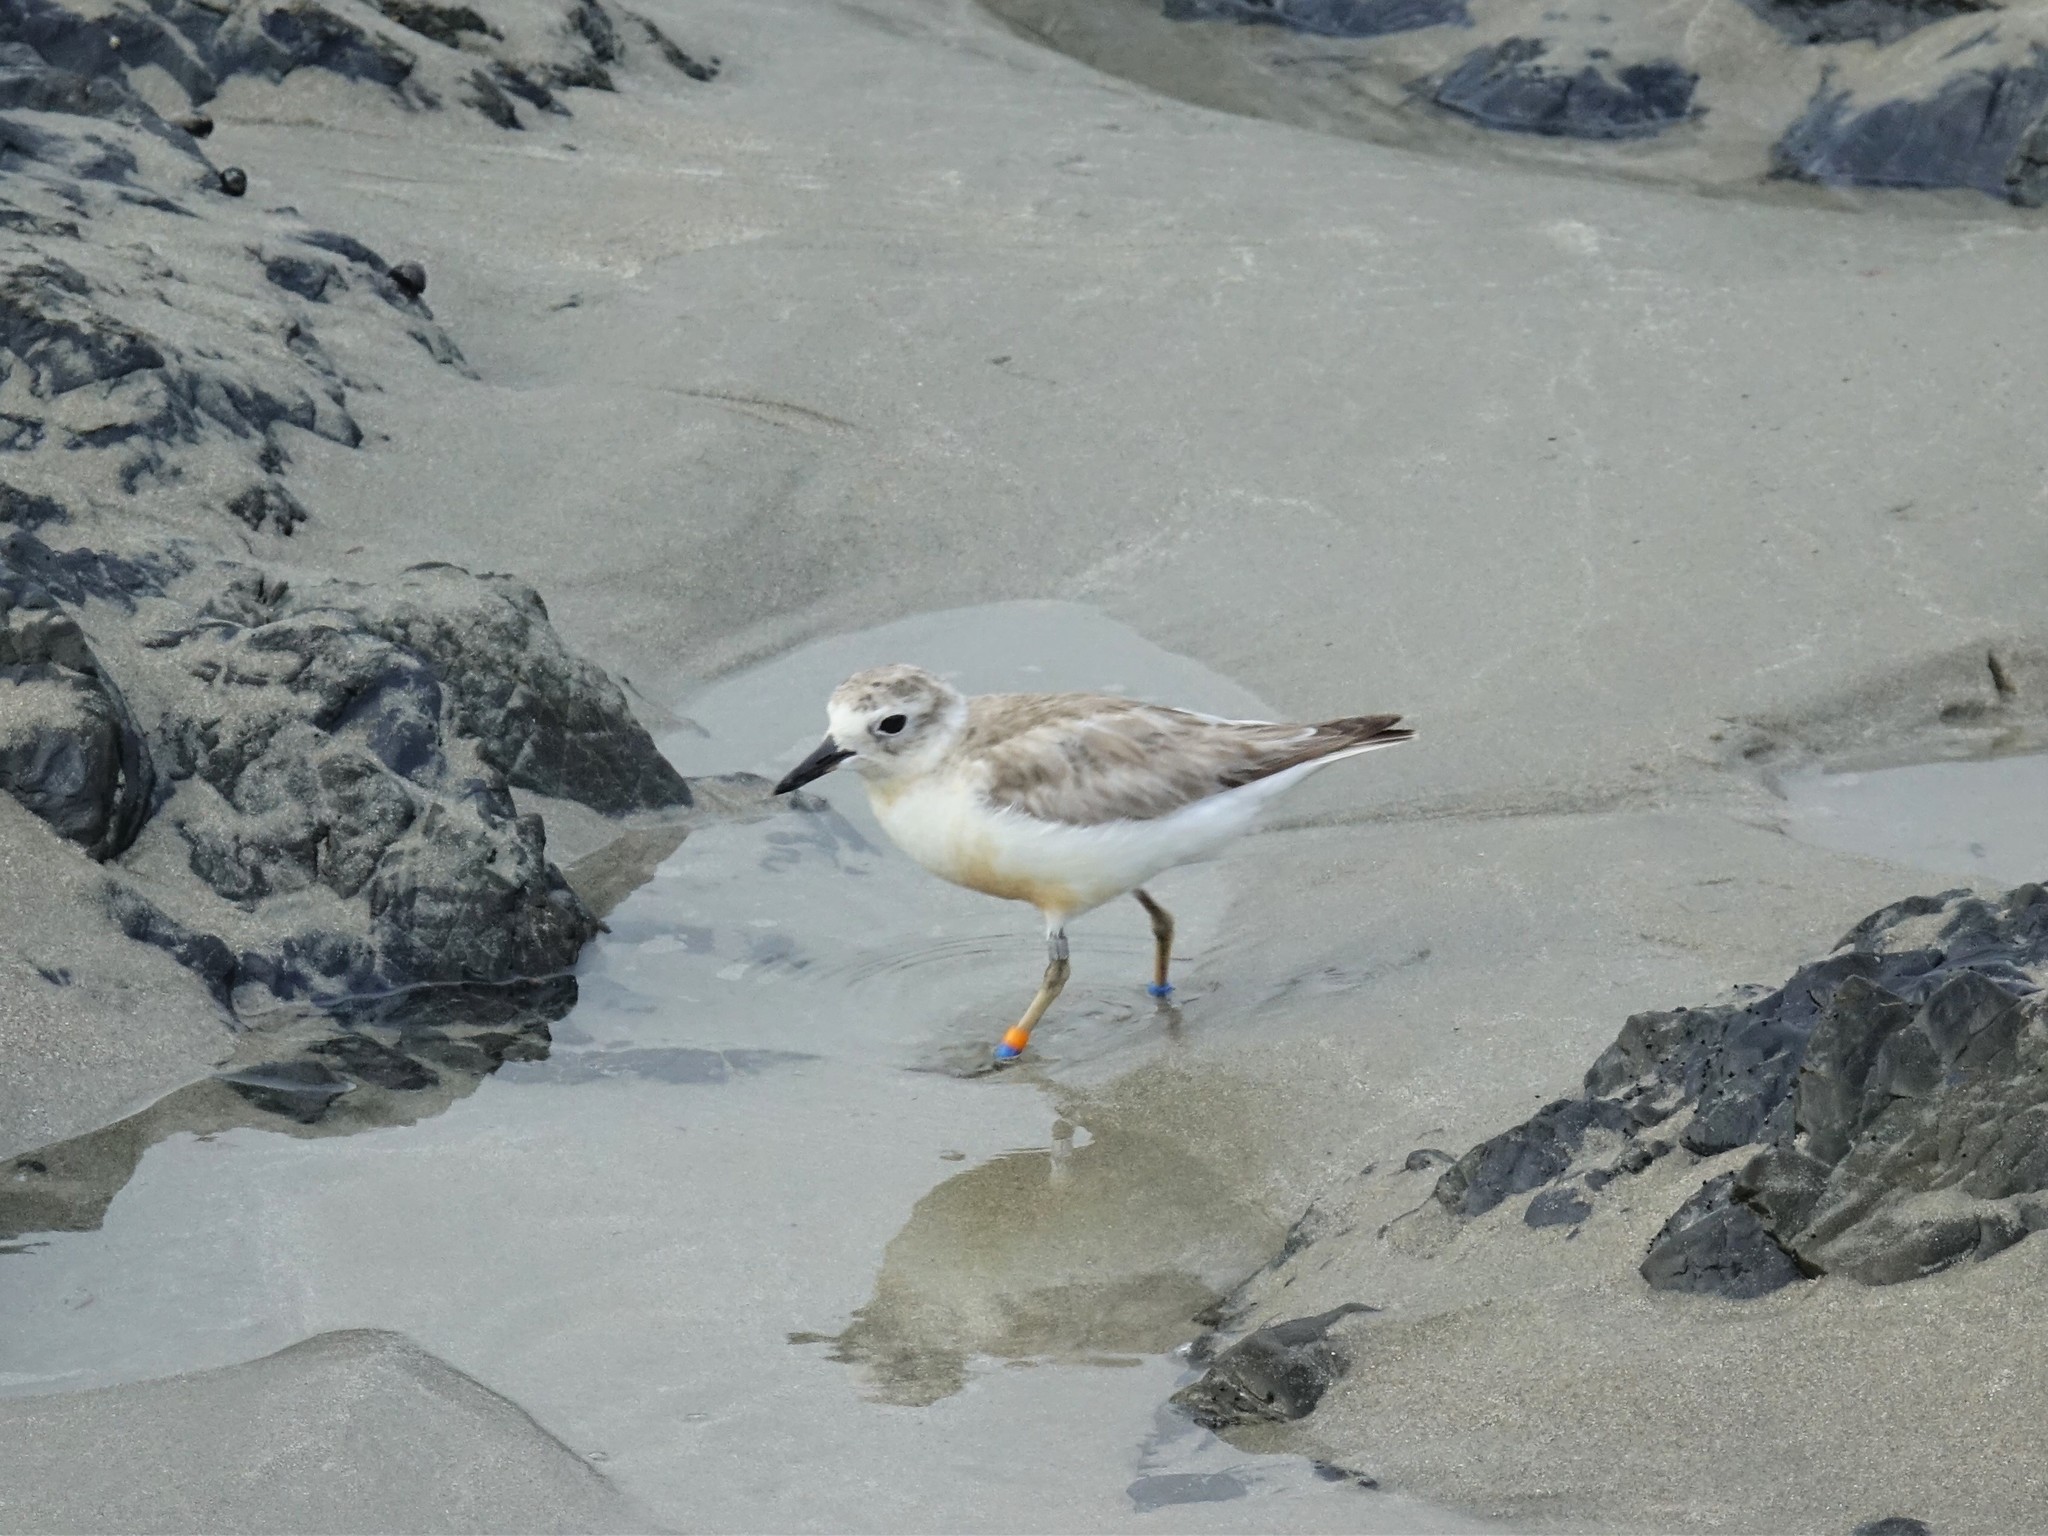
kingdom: Animalia
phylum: Chordata
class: Aves
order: Charadriiformes
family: Charadriidae
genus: Anarhynchus
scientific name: Anarhynchus
